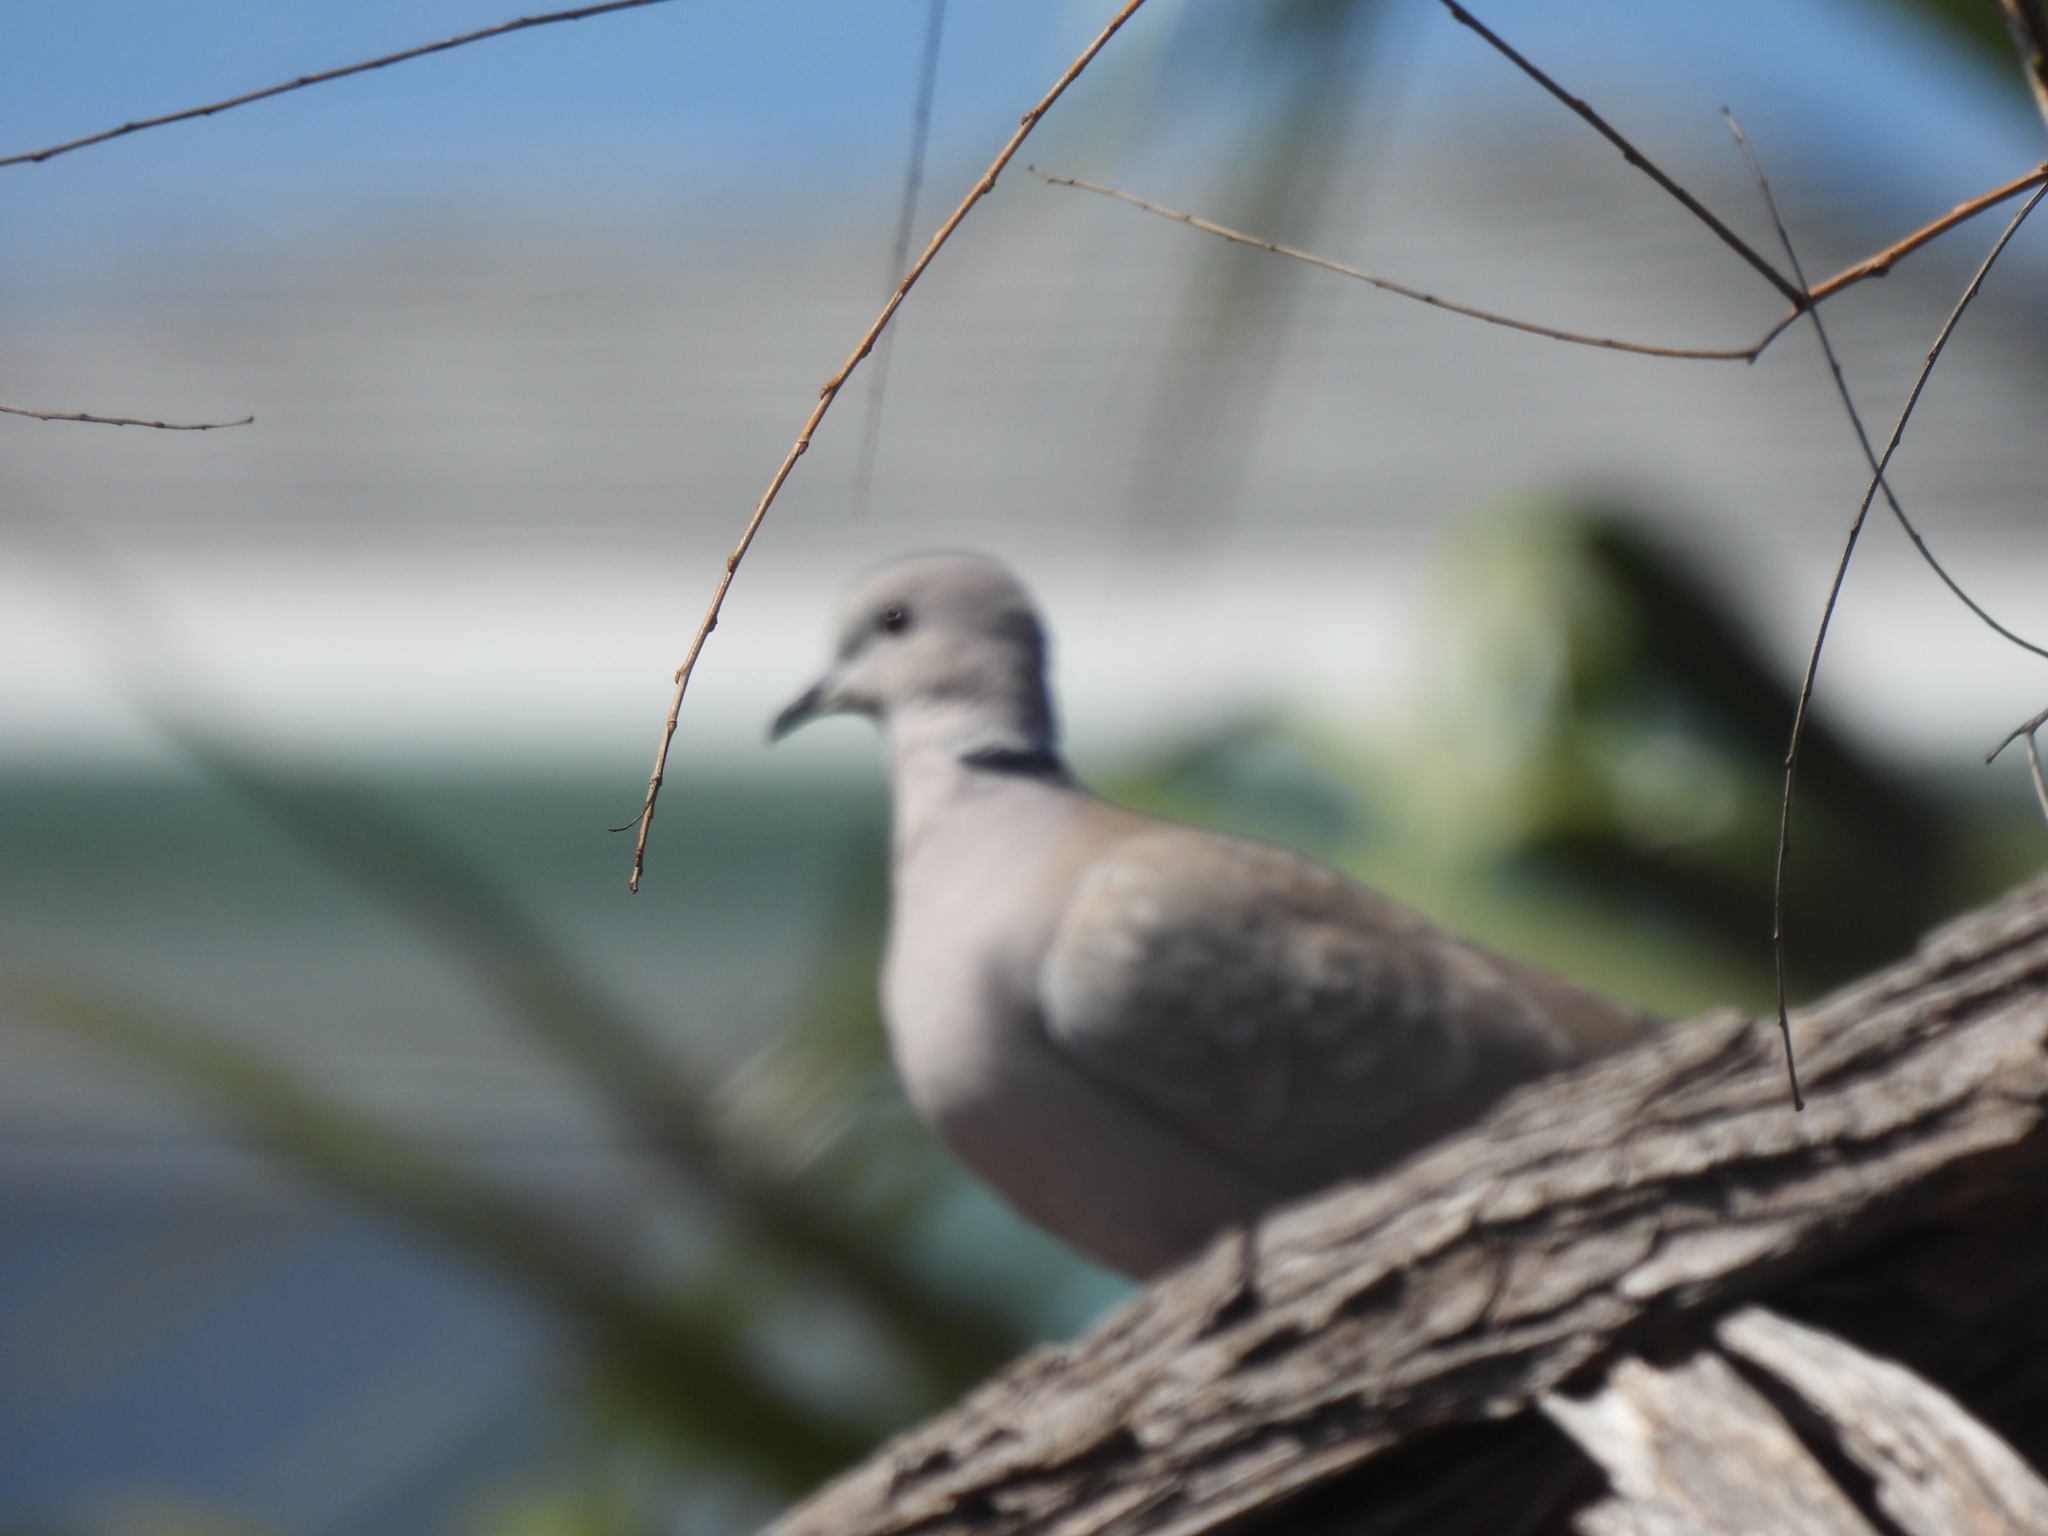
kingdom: Animalia
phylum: Chordata
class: Aves
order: Columbiformes
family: Columbidae
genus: Streptopelia
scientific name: Streptopelia decaocto
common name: Eurasian collared dove
